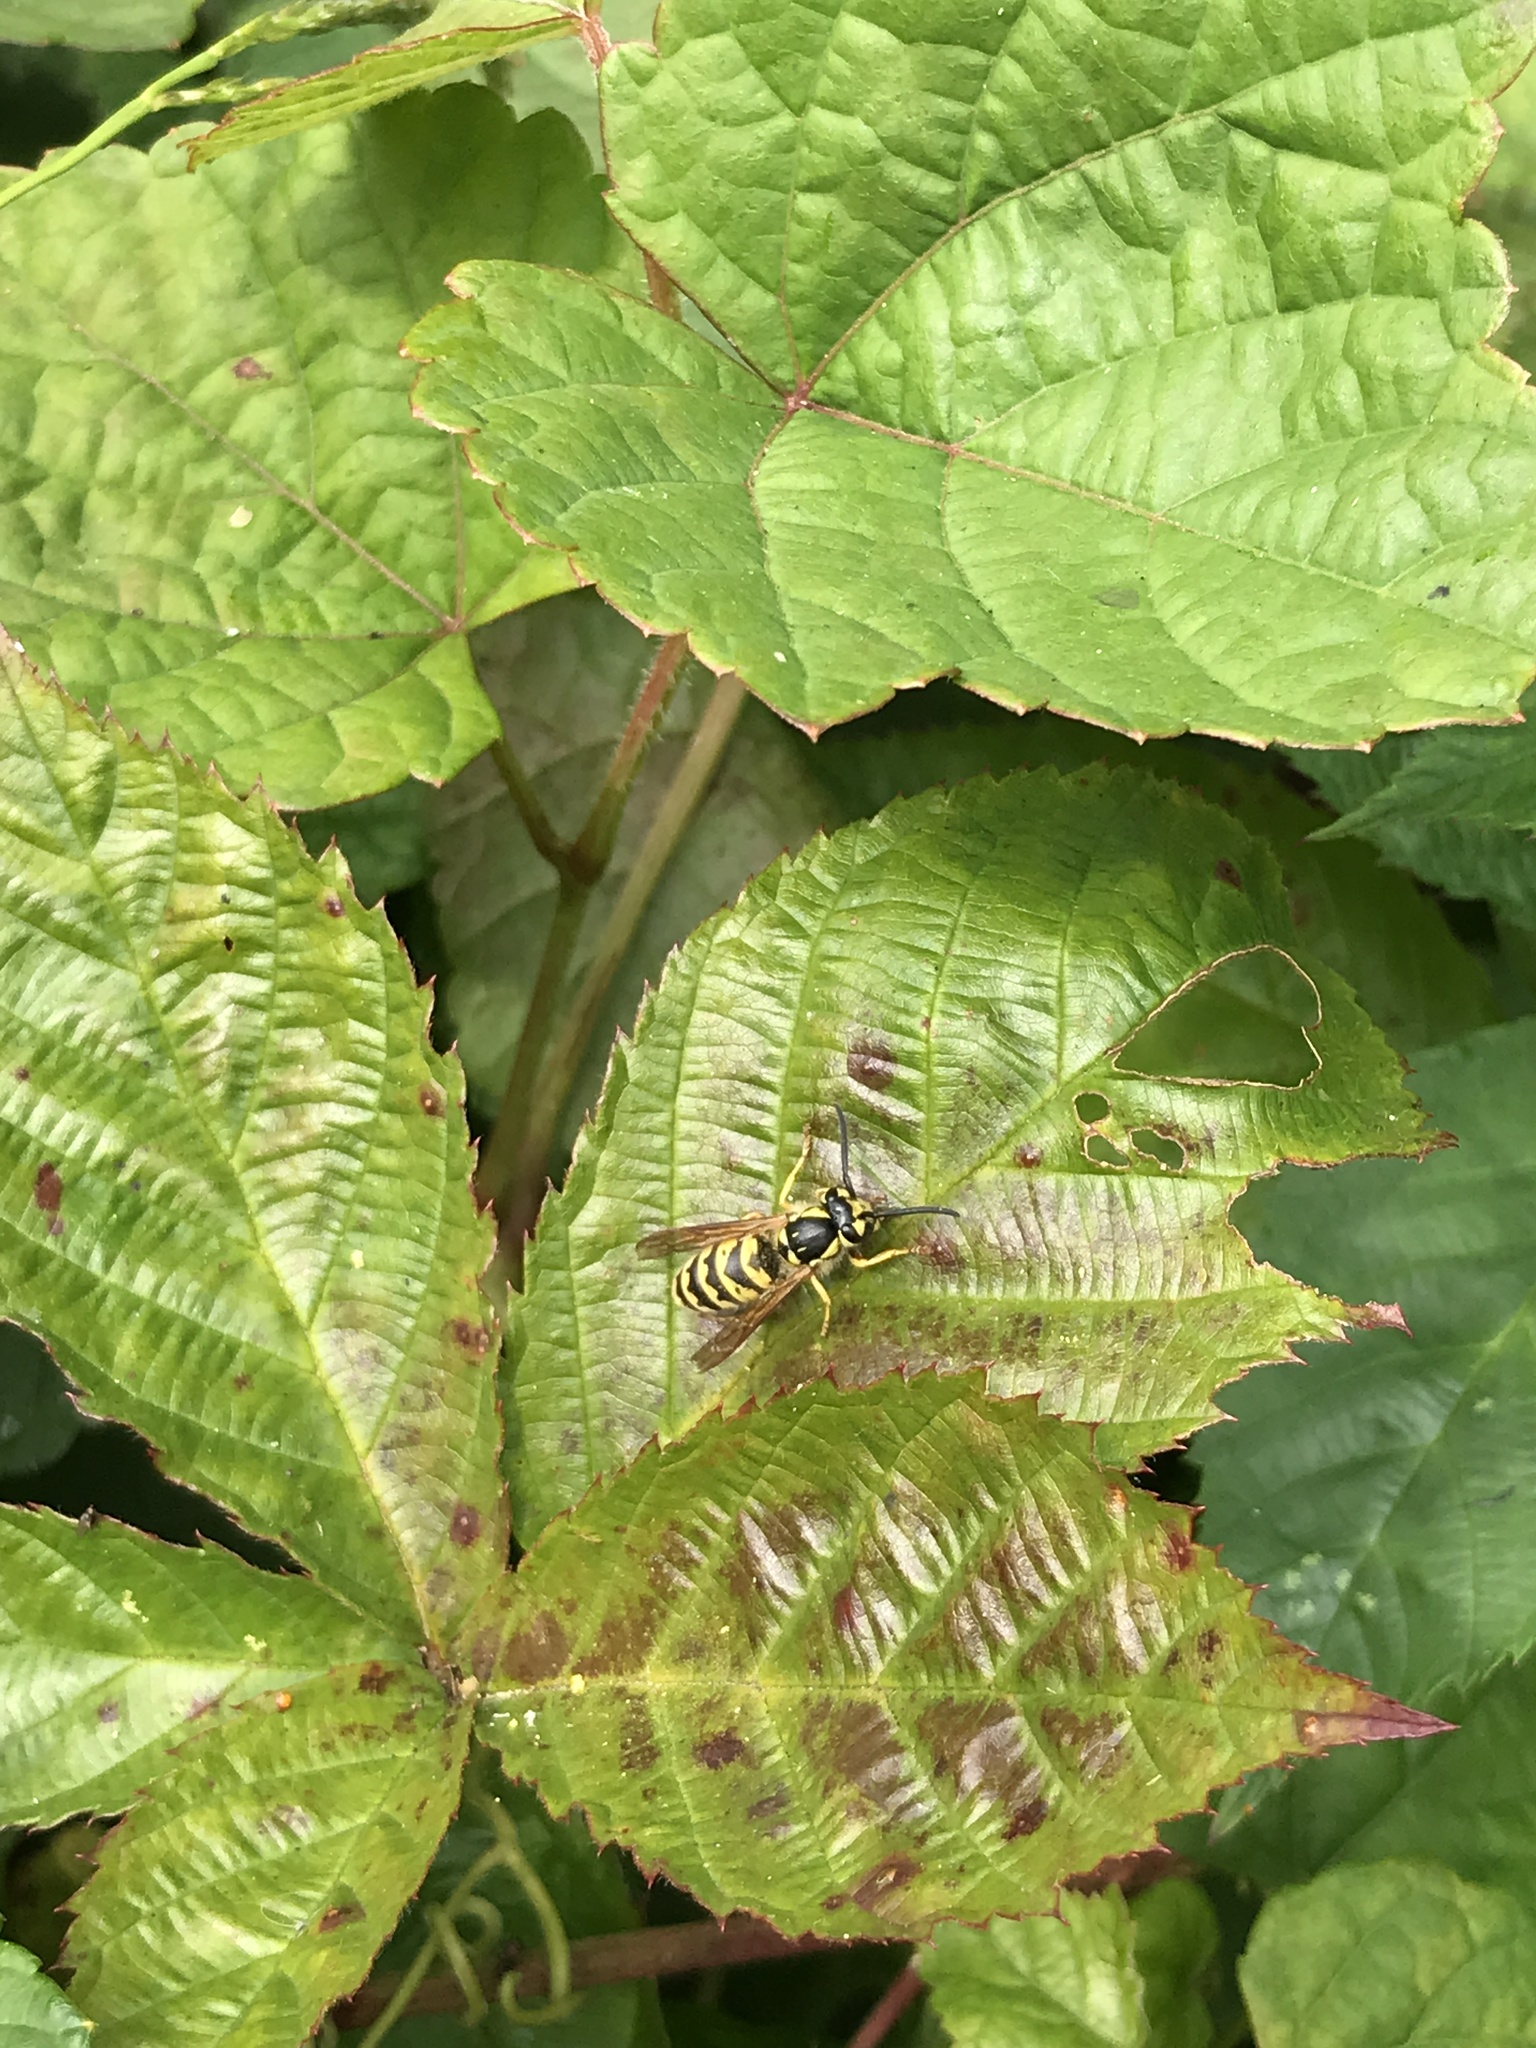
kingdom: Animalia
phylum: Arthropoda
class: Insecta
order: Hymenoptera
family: Vespidae
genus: Vespula
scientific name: Vespula flavopilosa
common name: Downy yellowjacket
